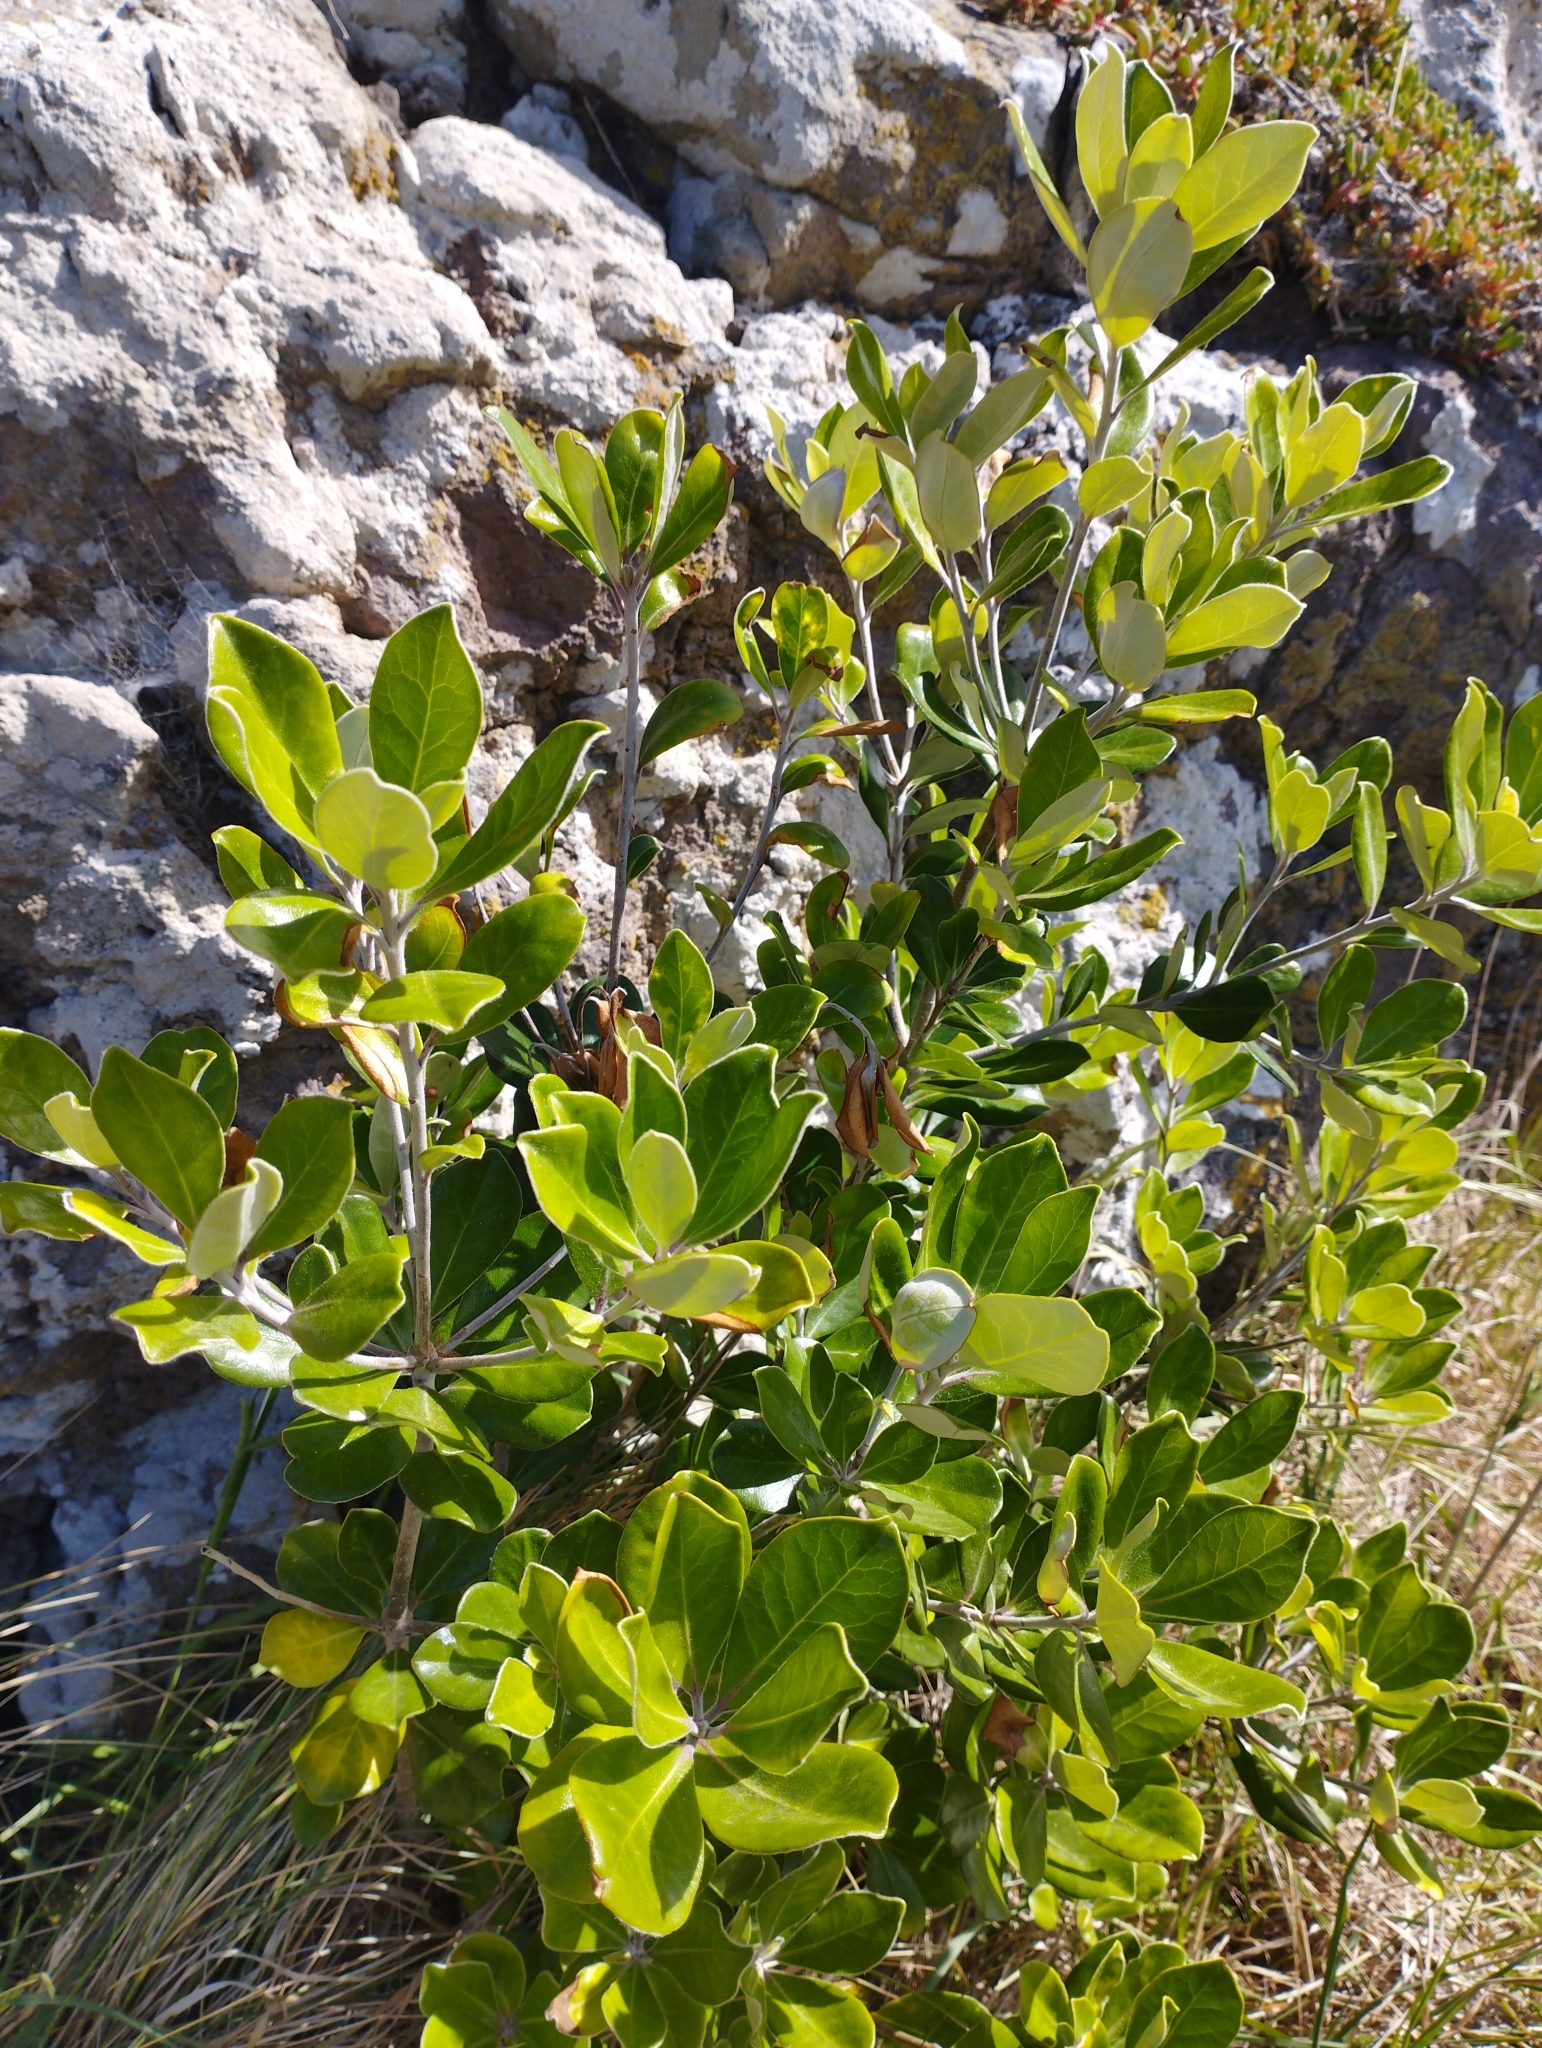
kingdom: Plantae
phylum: Tracheophyta
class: Magnoliopsida
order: Apiales
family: Pittosporaceae
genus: Pittosporum
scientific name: Pittosporum crassifolium
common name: Karo
